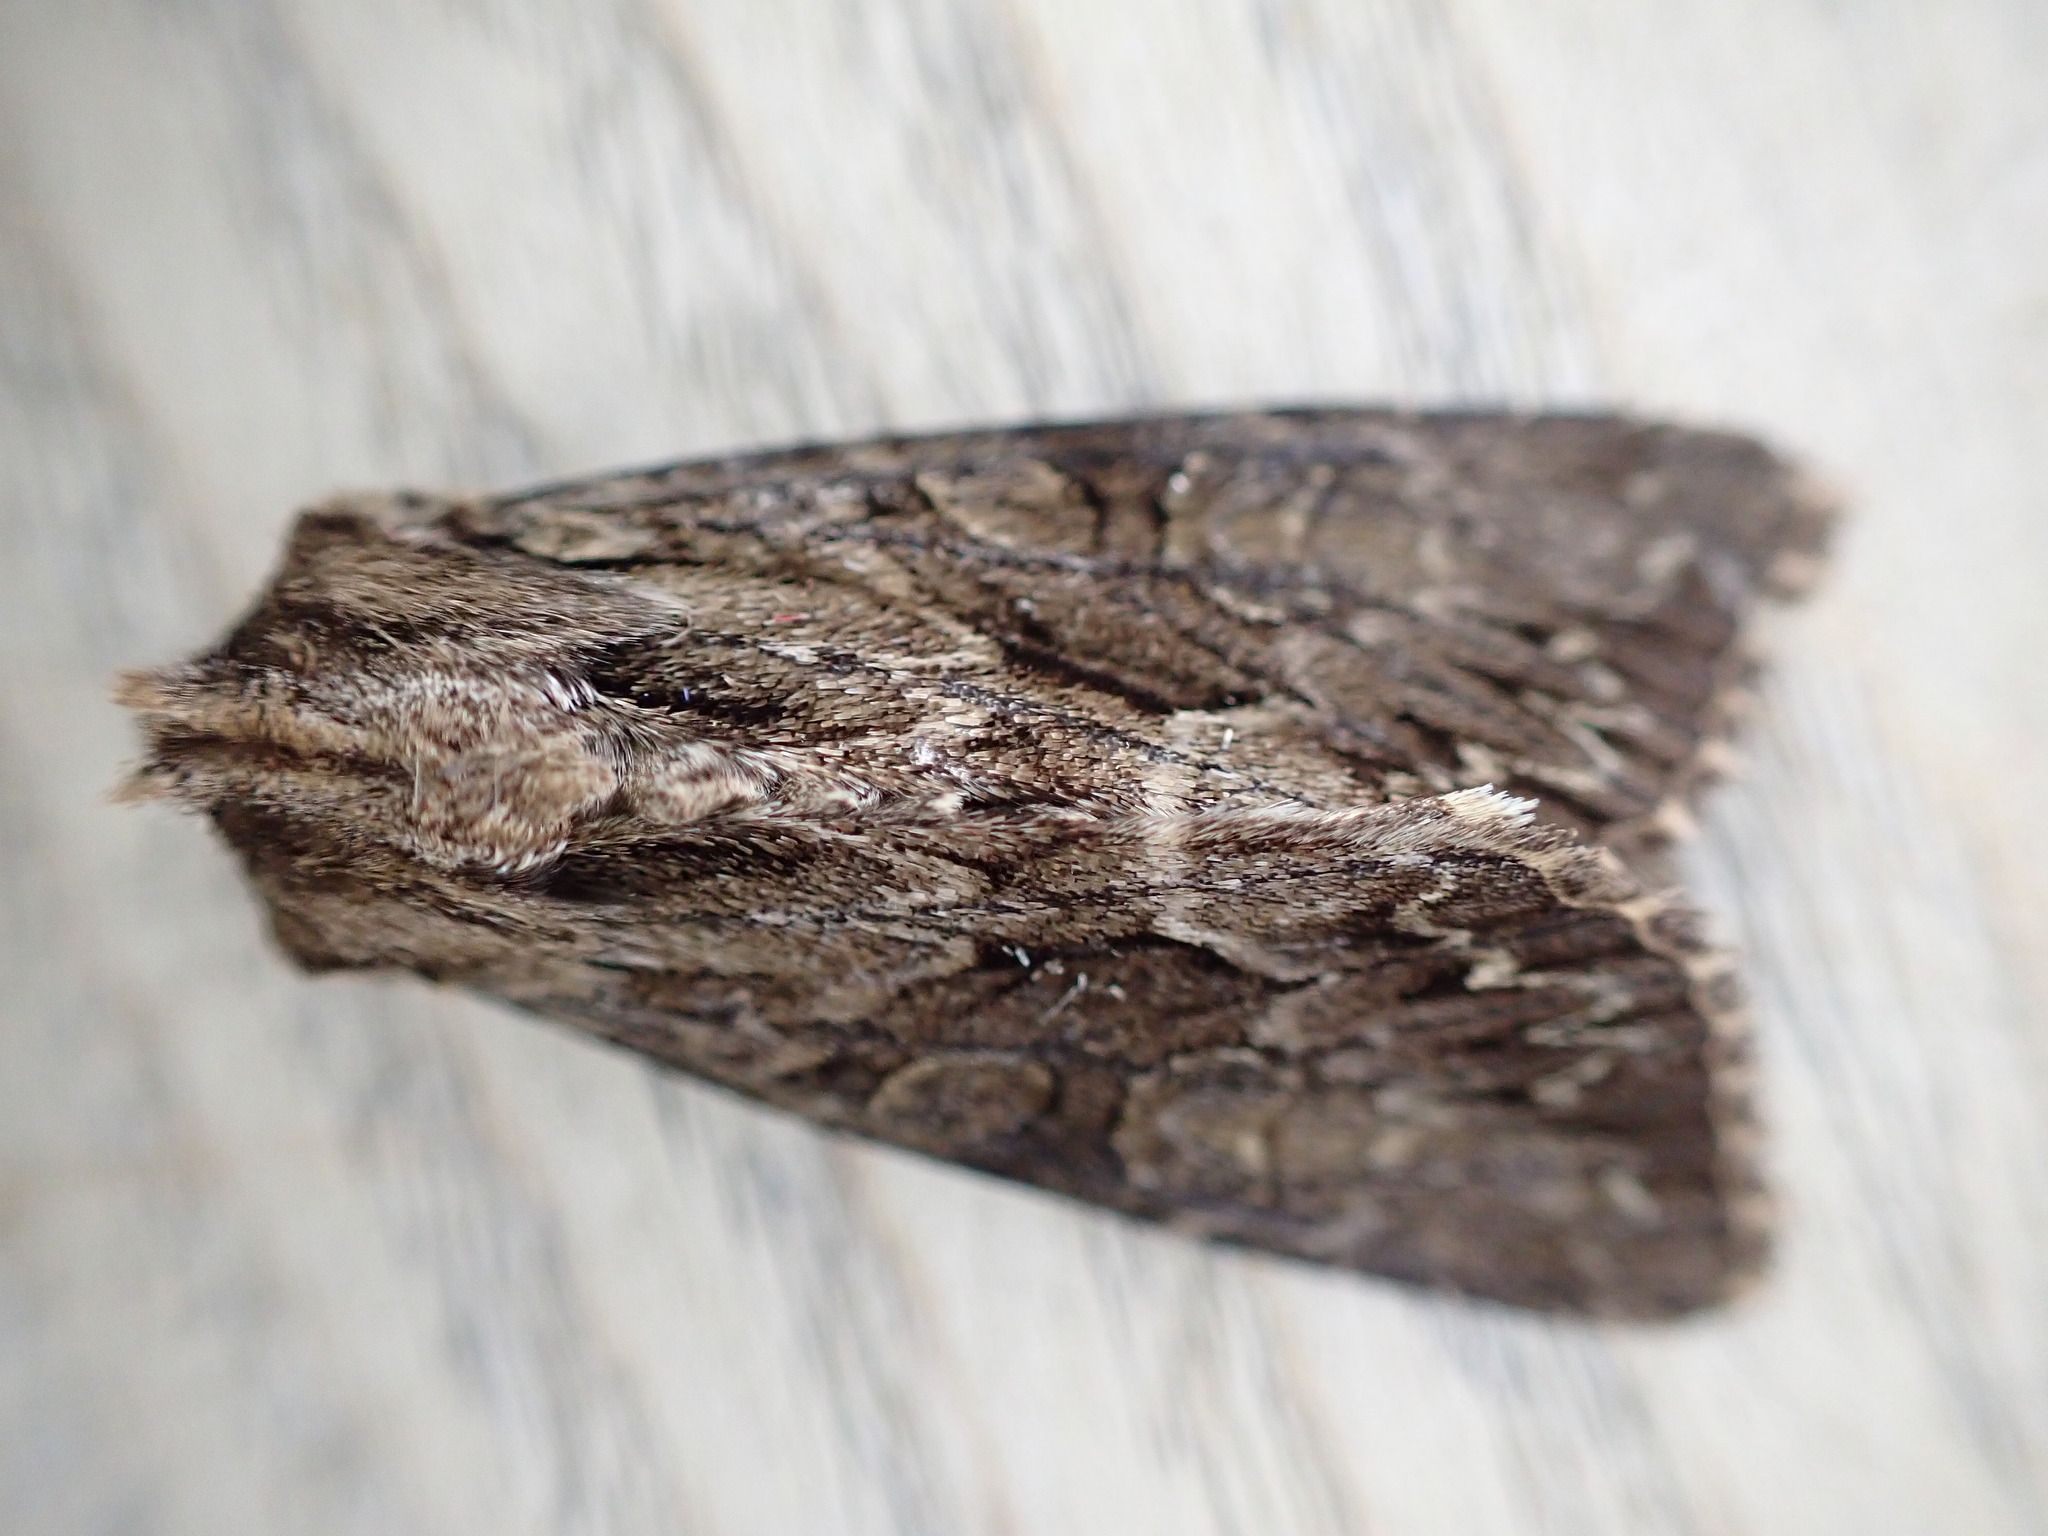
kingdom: Animalia
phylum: Arthropoda
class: Insecta
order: Lepidoptera
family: Noctuidae
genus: Apamea
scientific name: Apamea monoglypha
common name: Dark arches
